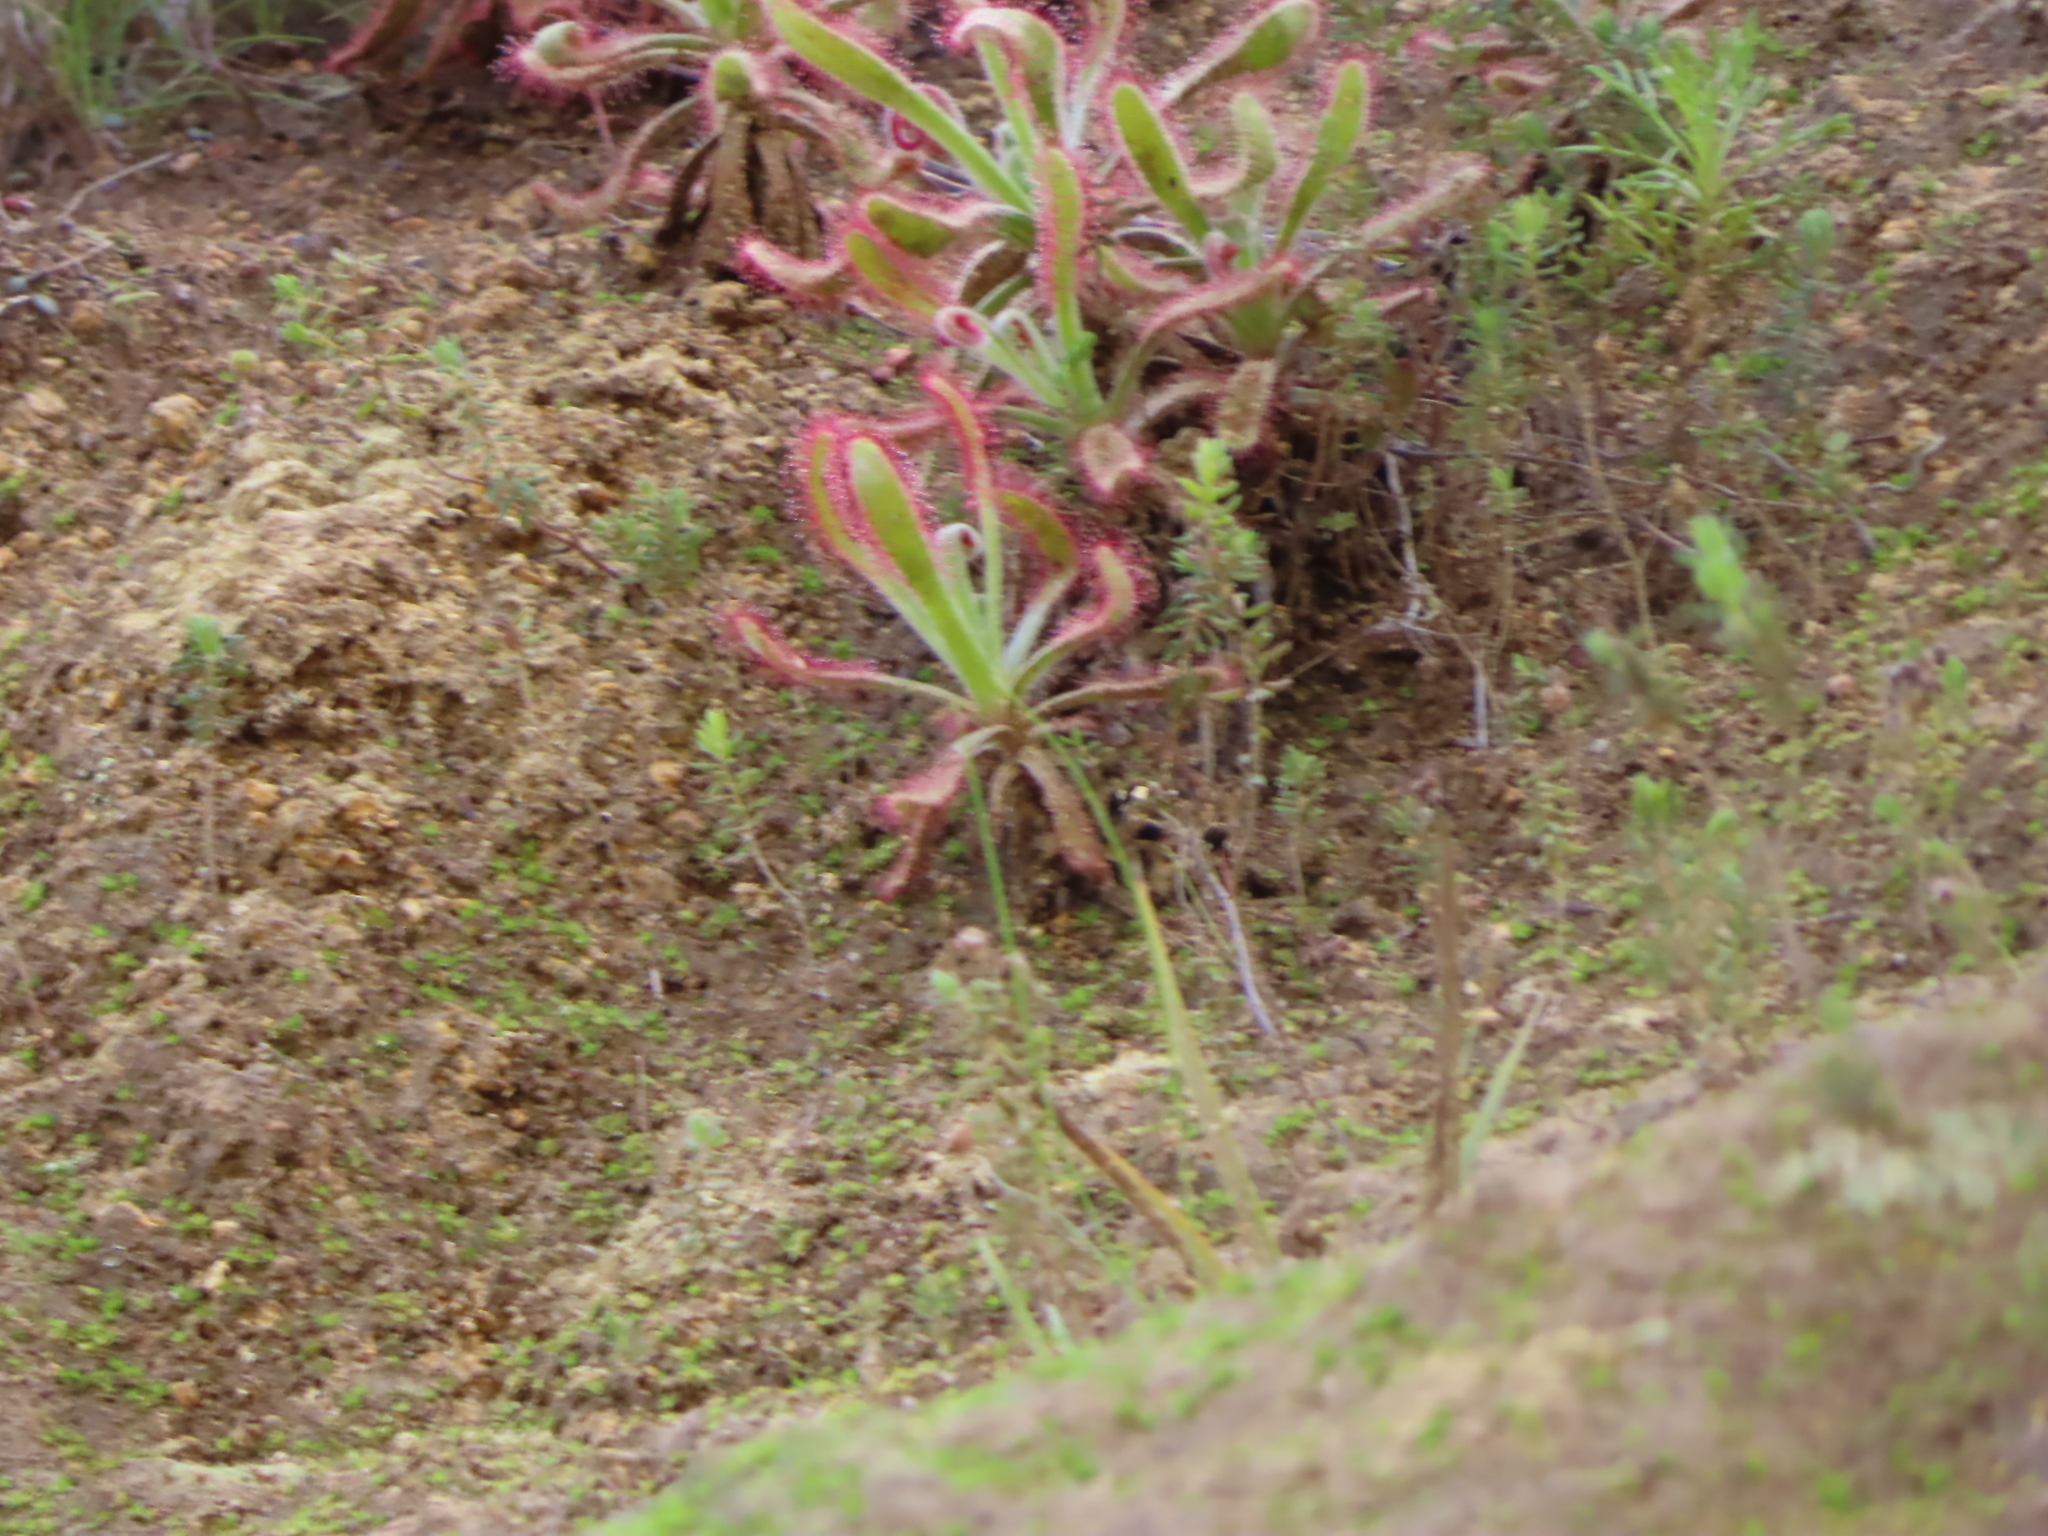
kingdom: Plantae
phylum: Tracheophyta
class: Magnoliopsida
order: Caryophyllales
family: Droseraceae
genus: Drosera
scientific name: Drosera hilaris
